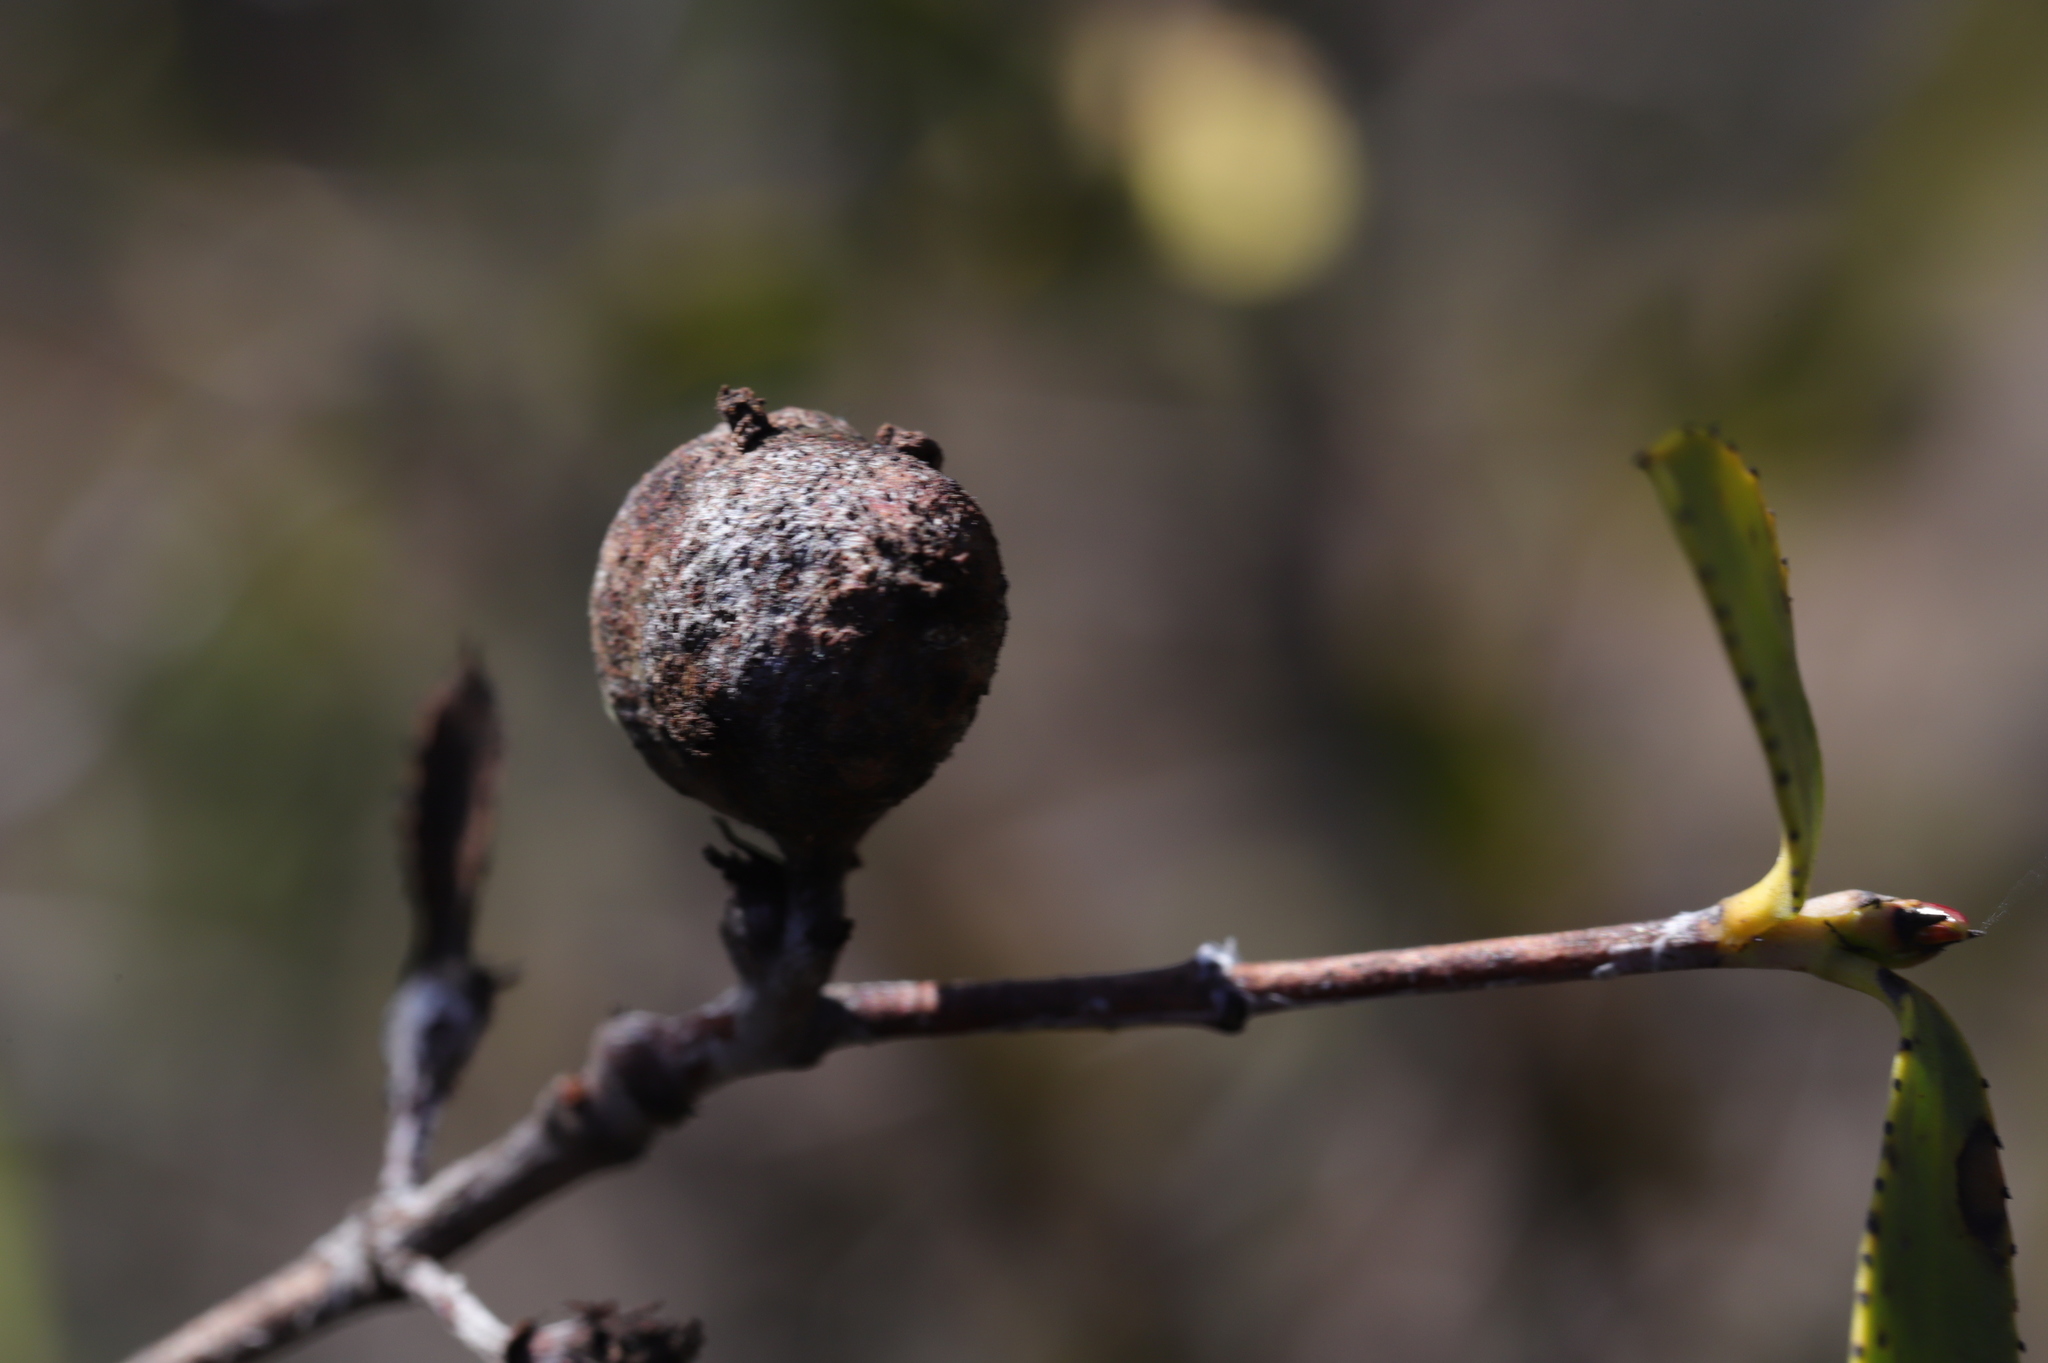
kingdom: Plantae
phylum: Tracheophyta
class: Magnoliopsida
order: Malpighiales
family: Euphorbiaceae
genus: Colliguaja
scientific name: Colliguaja odorifera
